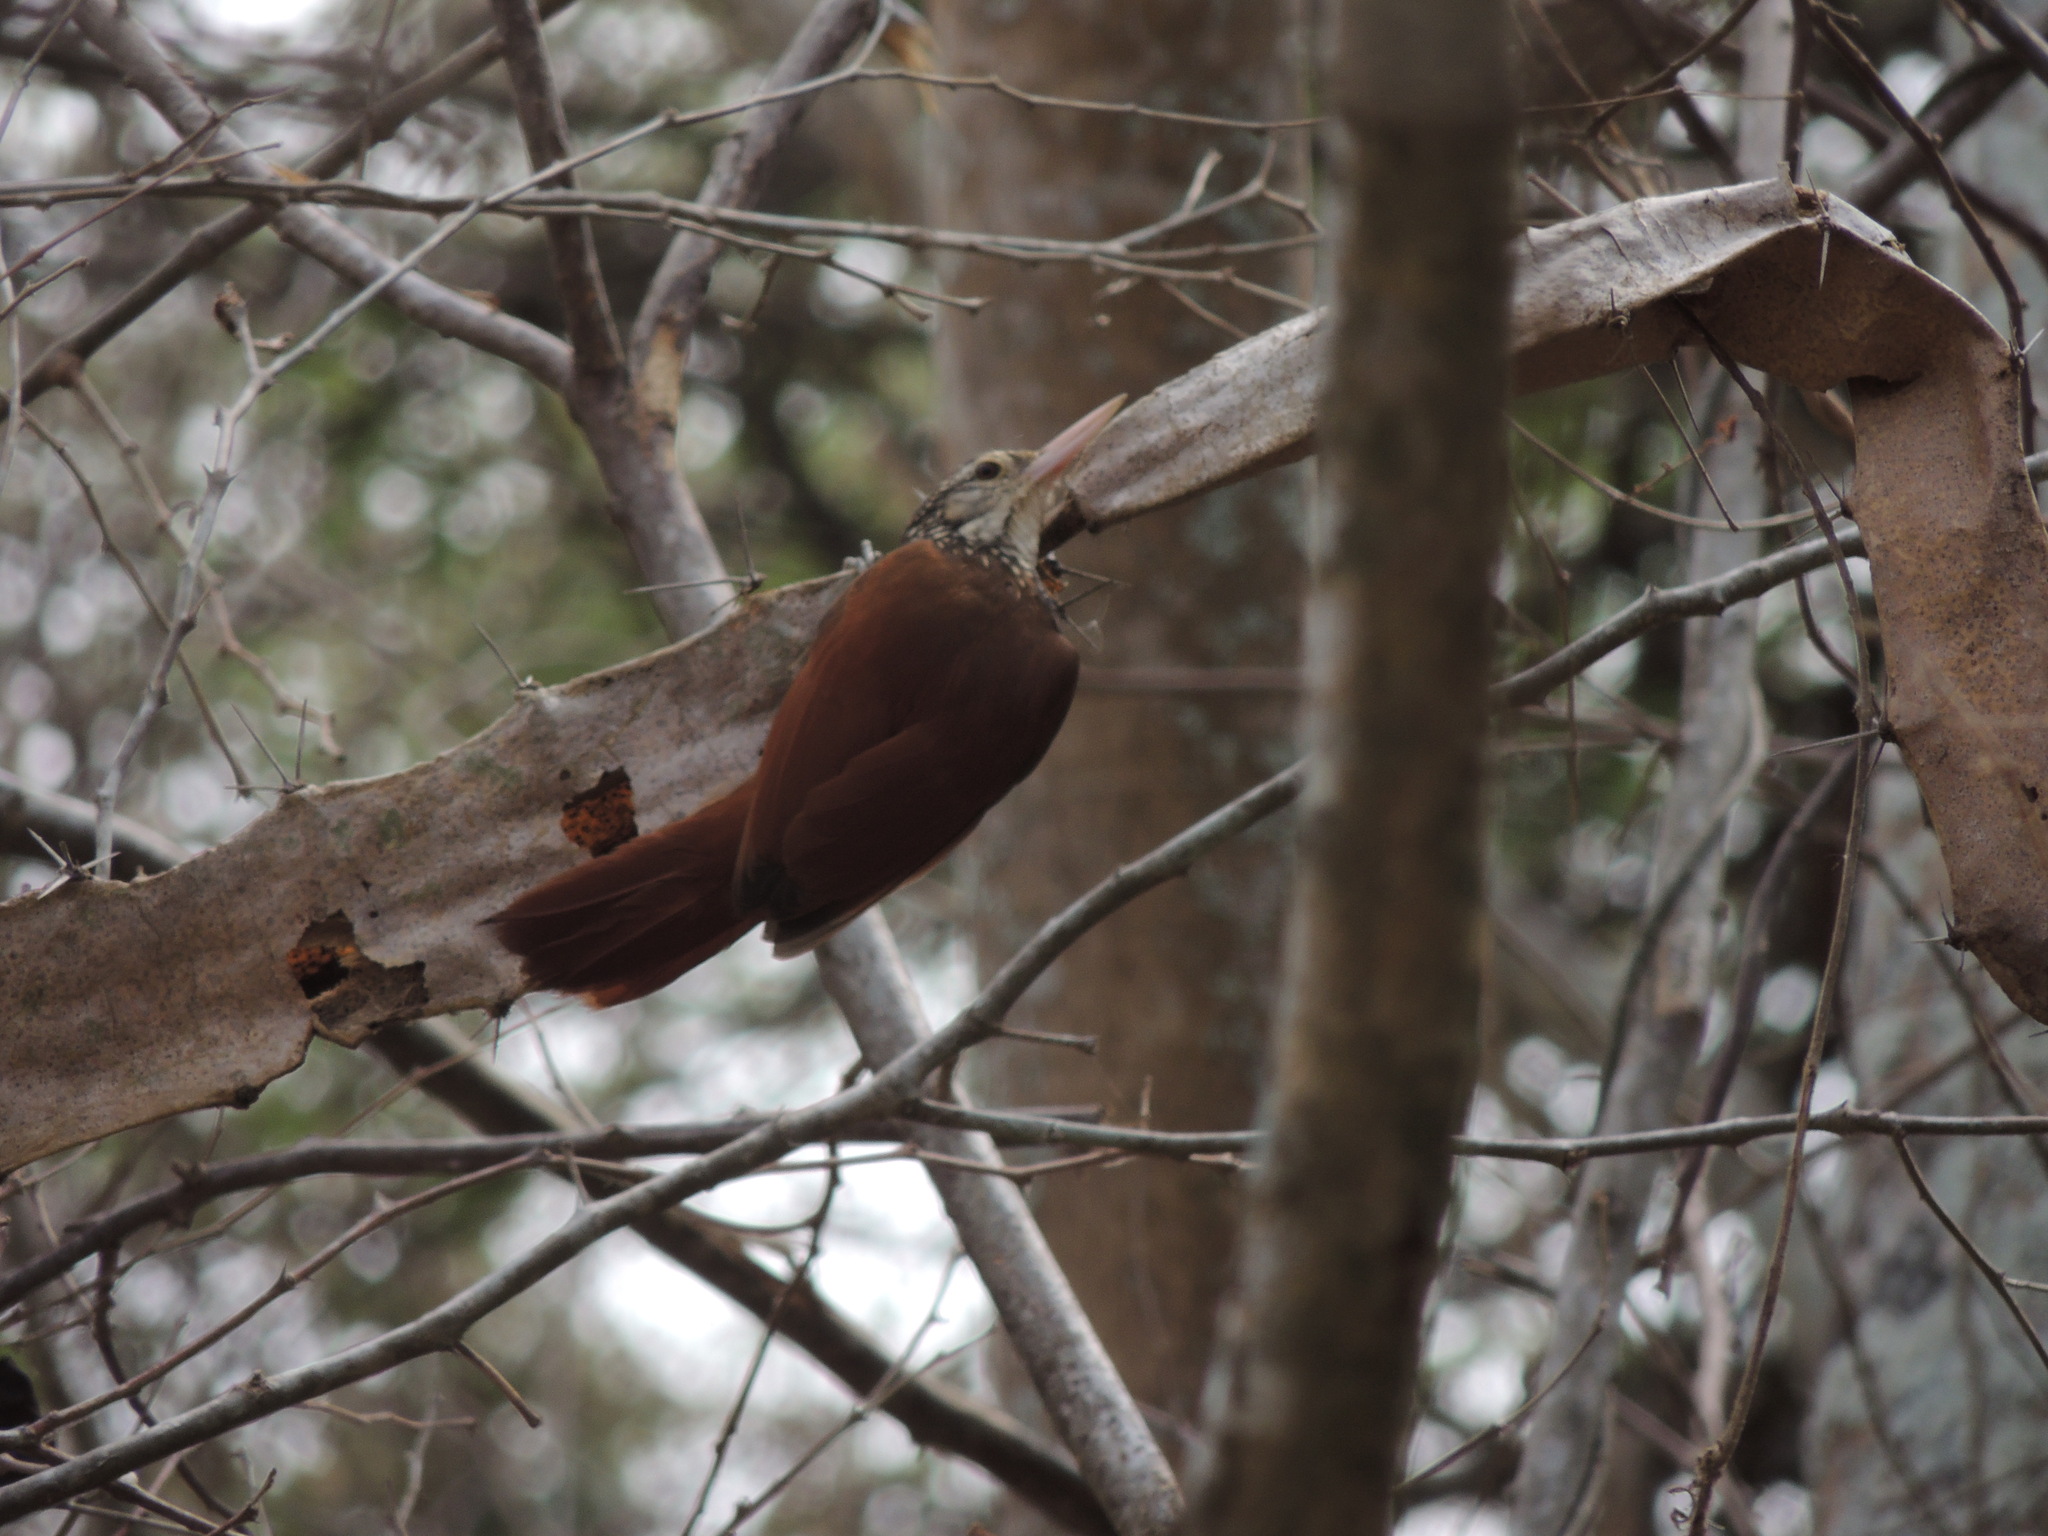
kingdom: Animalia
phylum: Chordata
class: Aves
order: Passeriformes
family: Furnariidae
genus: Xiphorhynchus
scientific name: Xiphorhynchus picus
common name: Straight-billed woodcreeper
